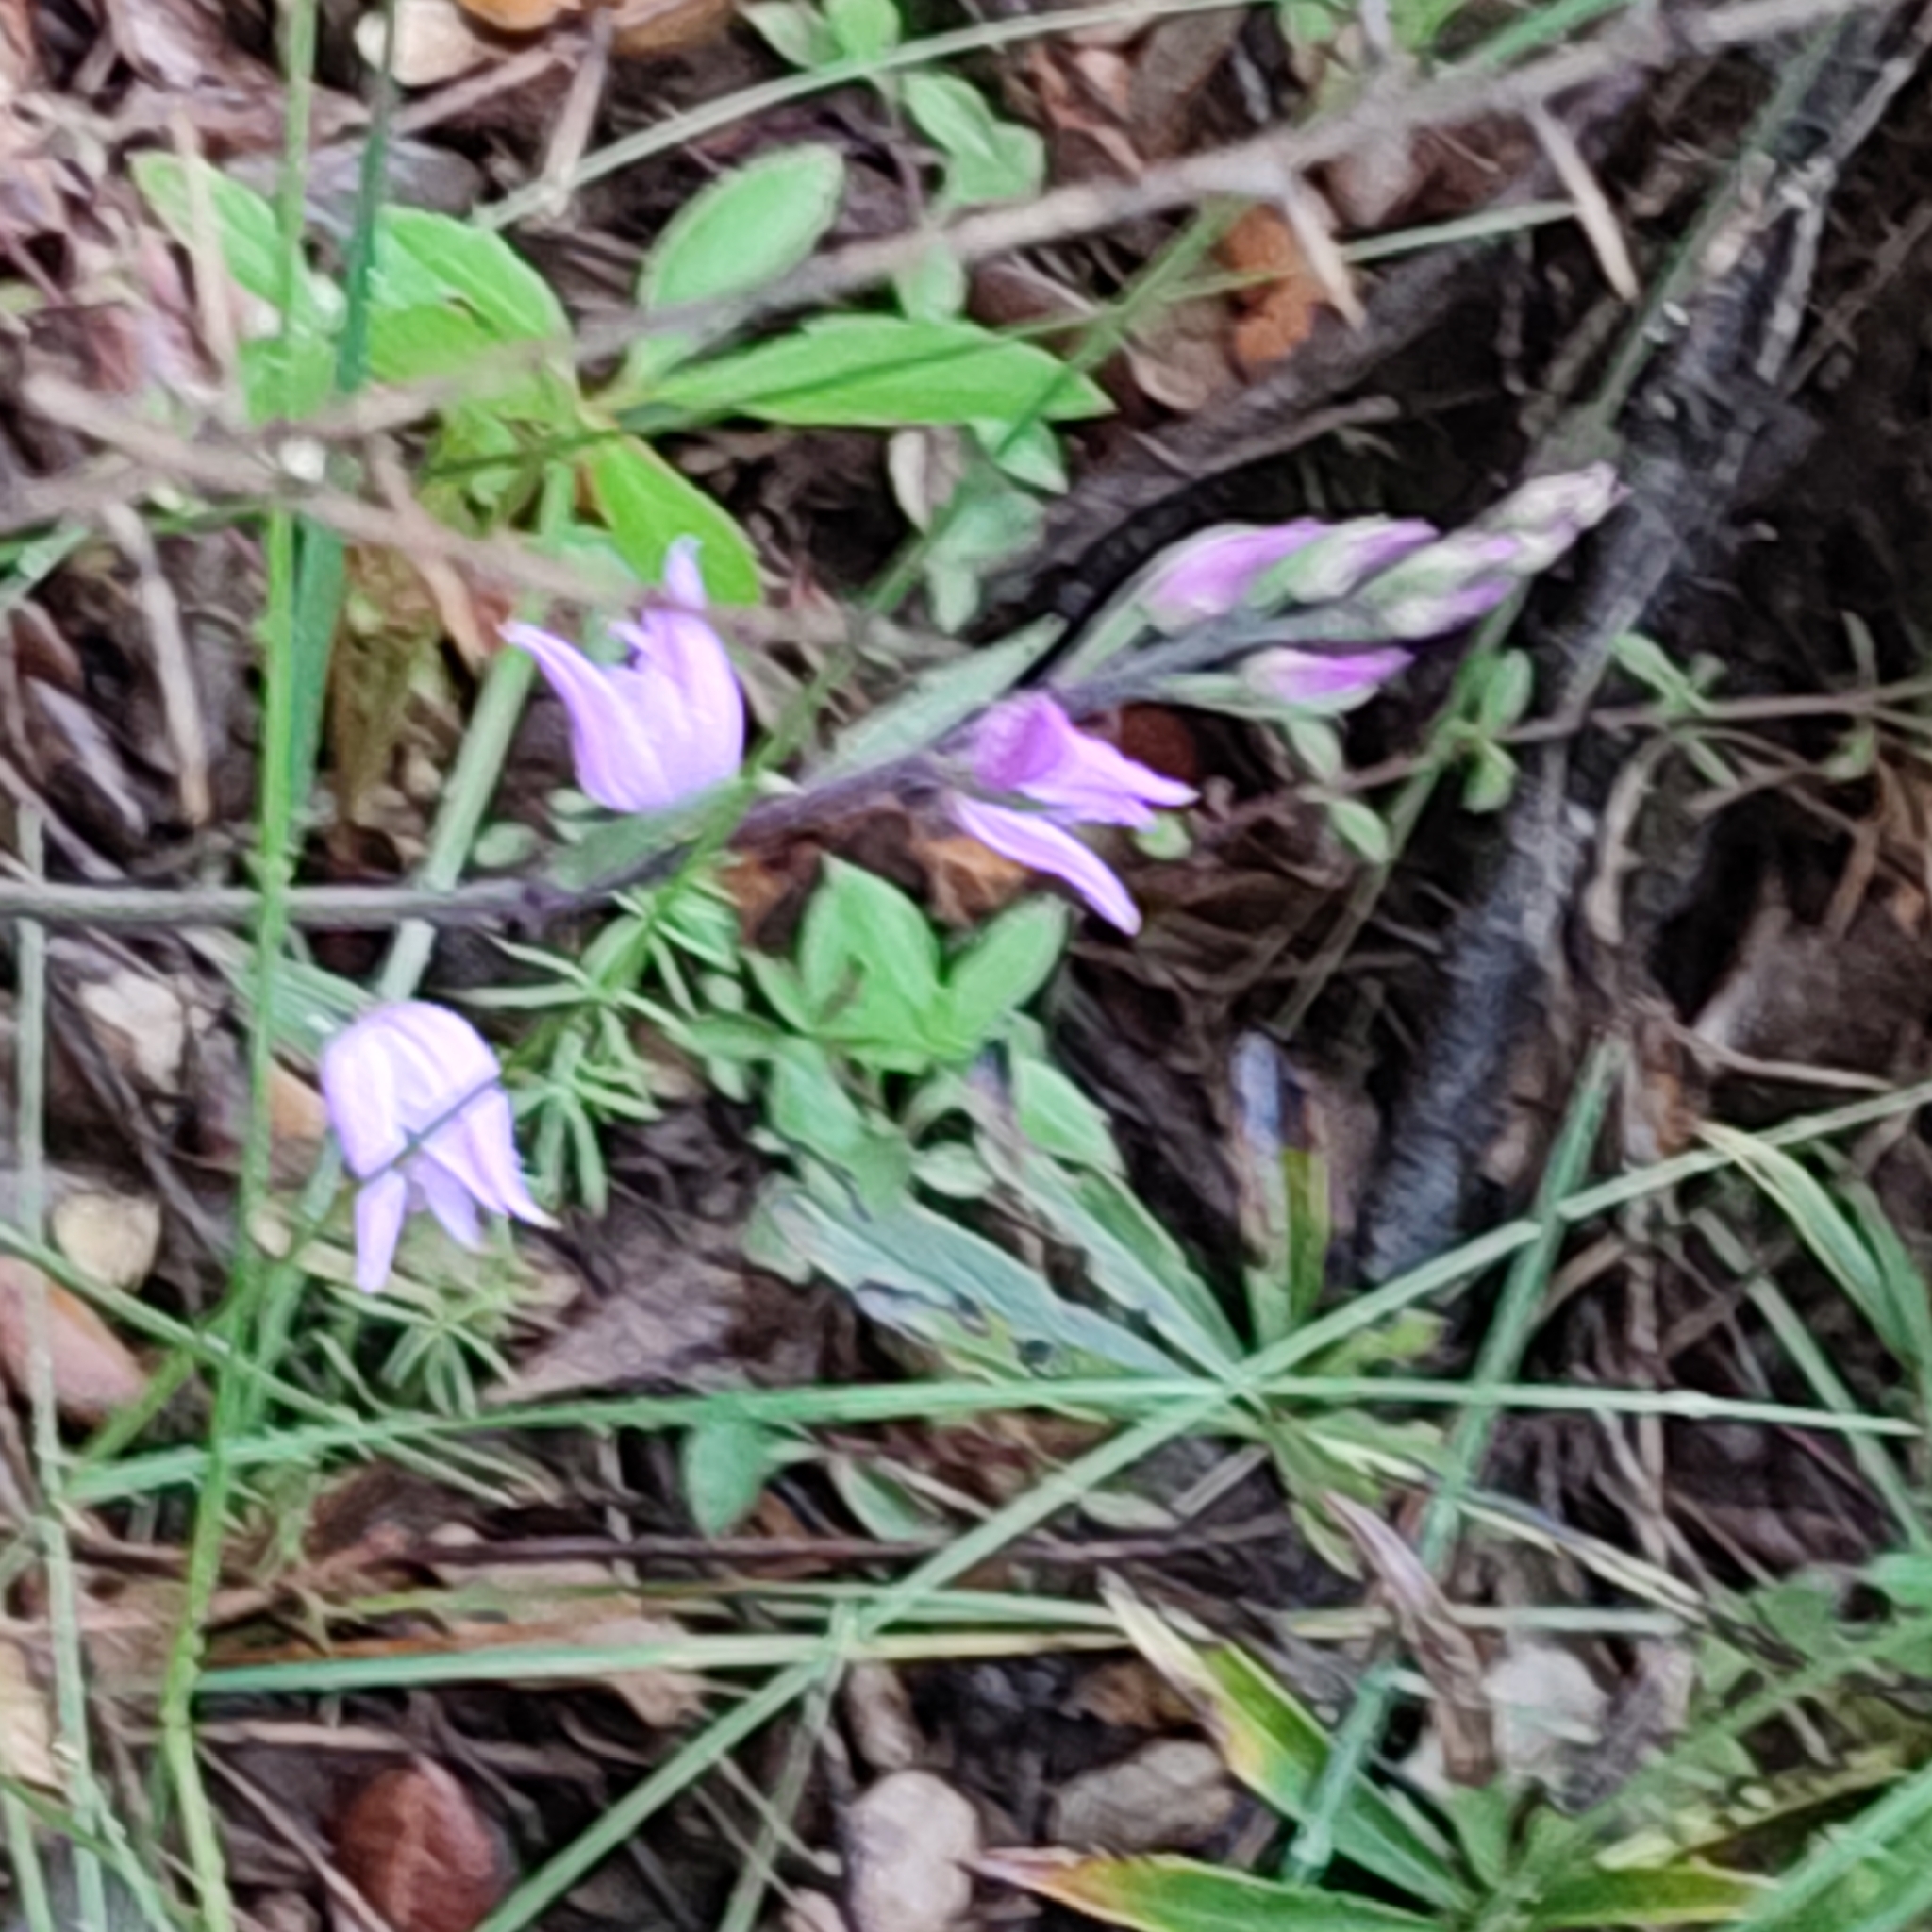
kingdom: Plantae
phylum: Tracheophyta
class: Liliopsida
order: Asparagales
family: Orchidaceae
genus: Cephalanthera
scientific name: Cephalanthera rubra
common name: Red helleborine
